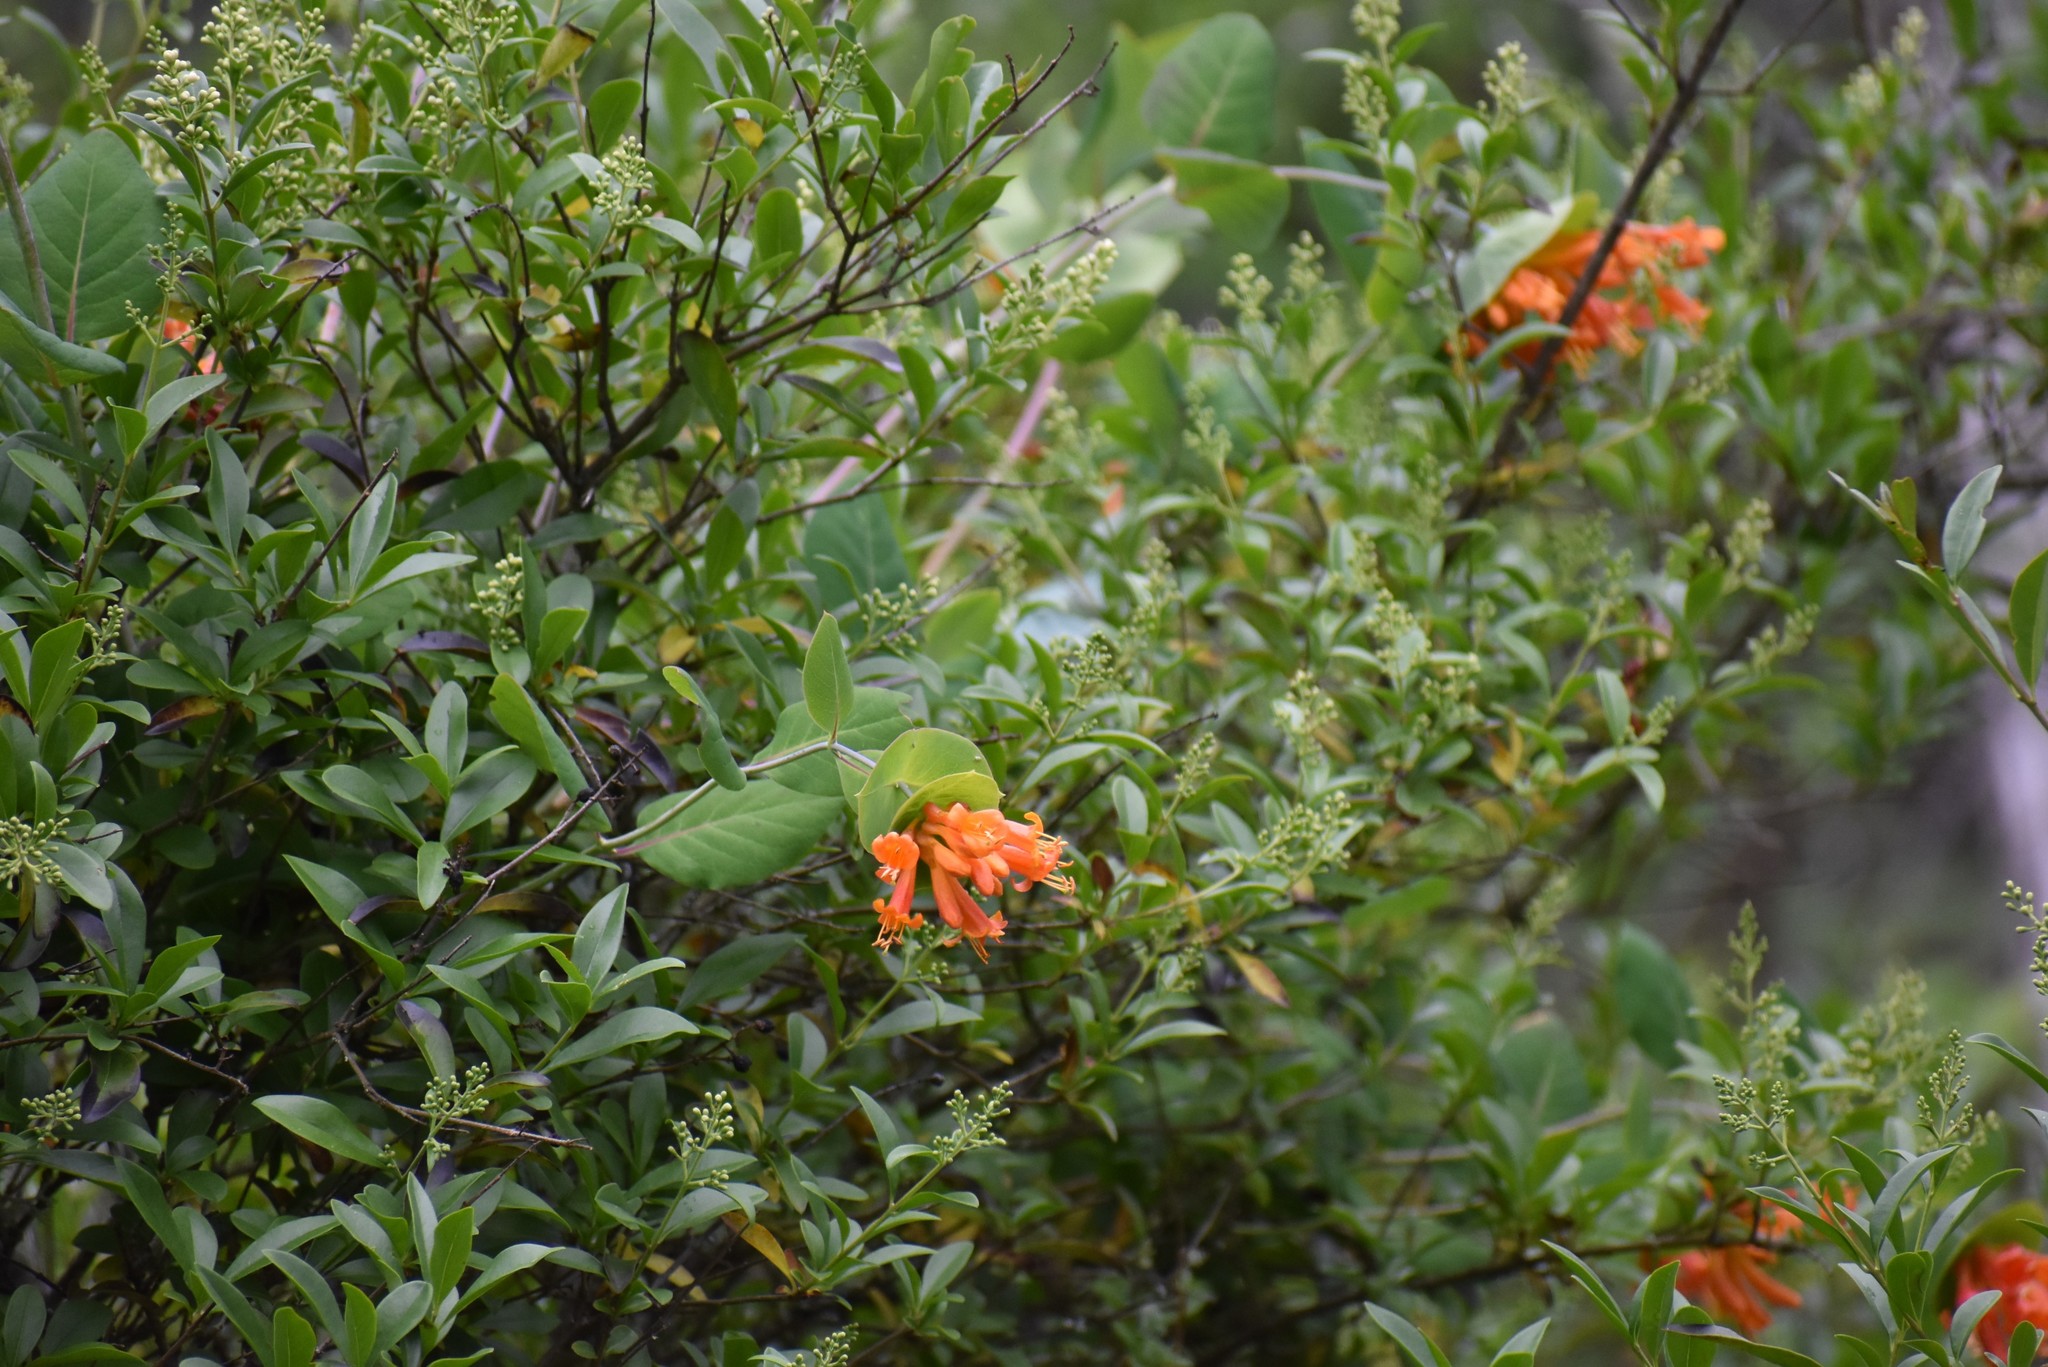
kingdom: Plantae
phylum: Tracheophyta
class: Magnoliopsida
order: Dipsacales
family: Caprifoliaceae
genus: Lonicera
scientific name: Lonicera ciliosa
